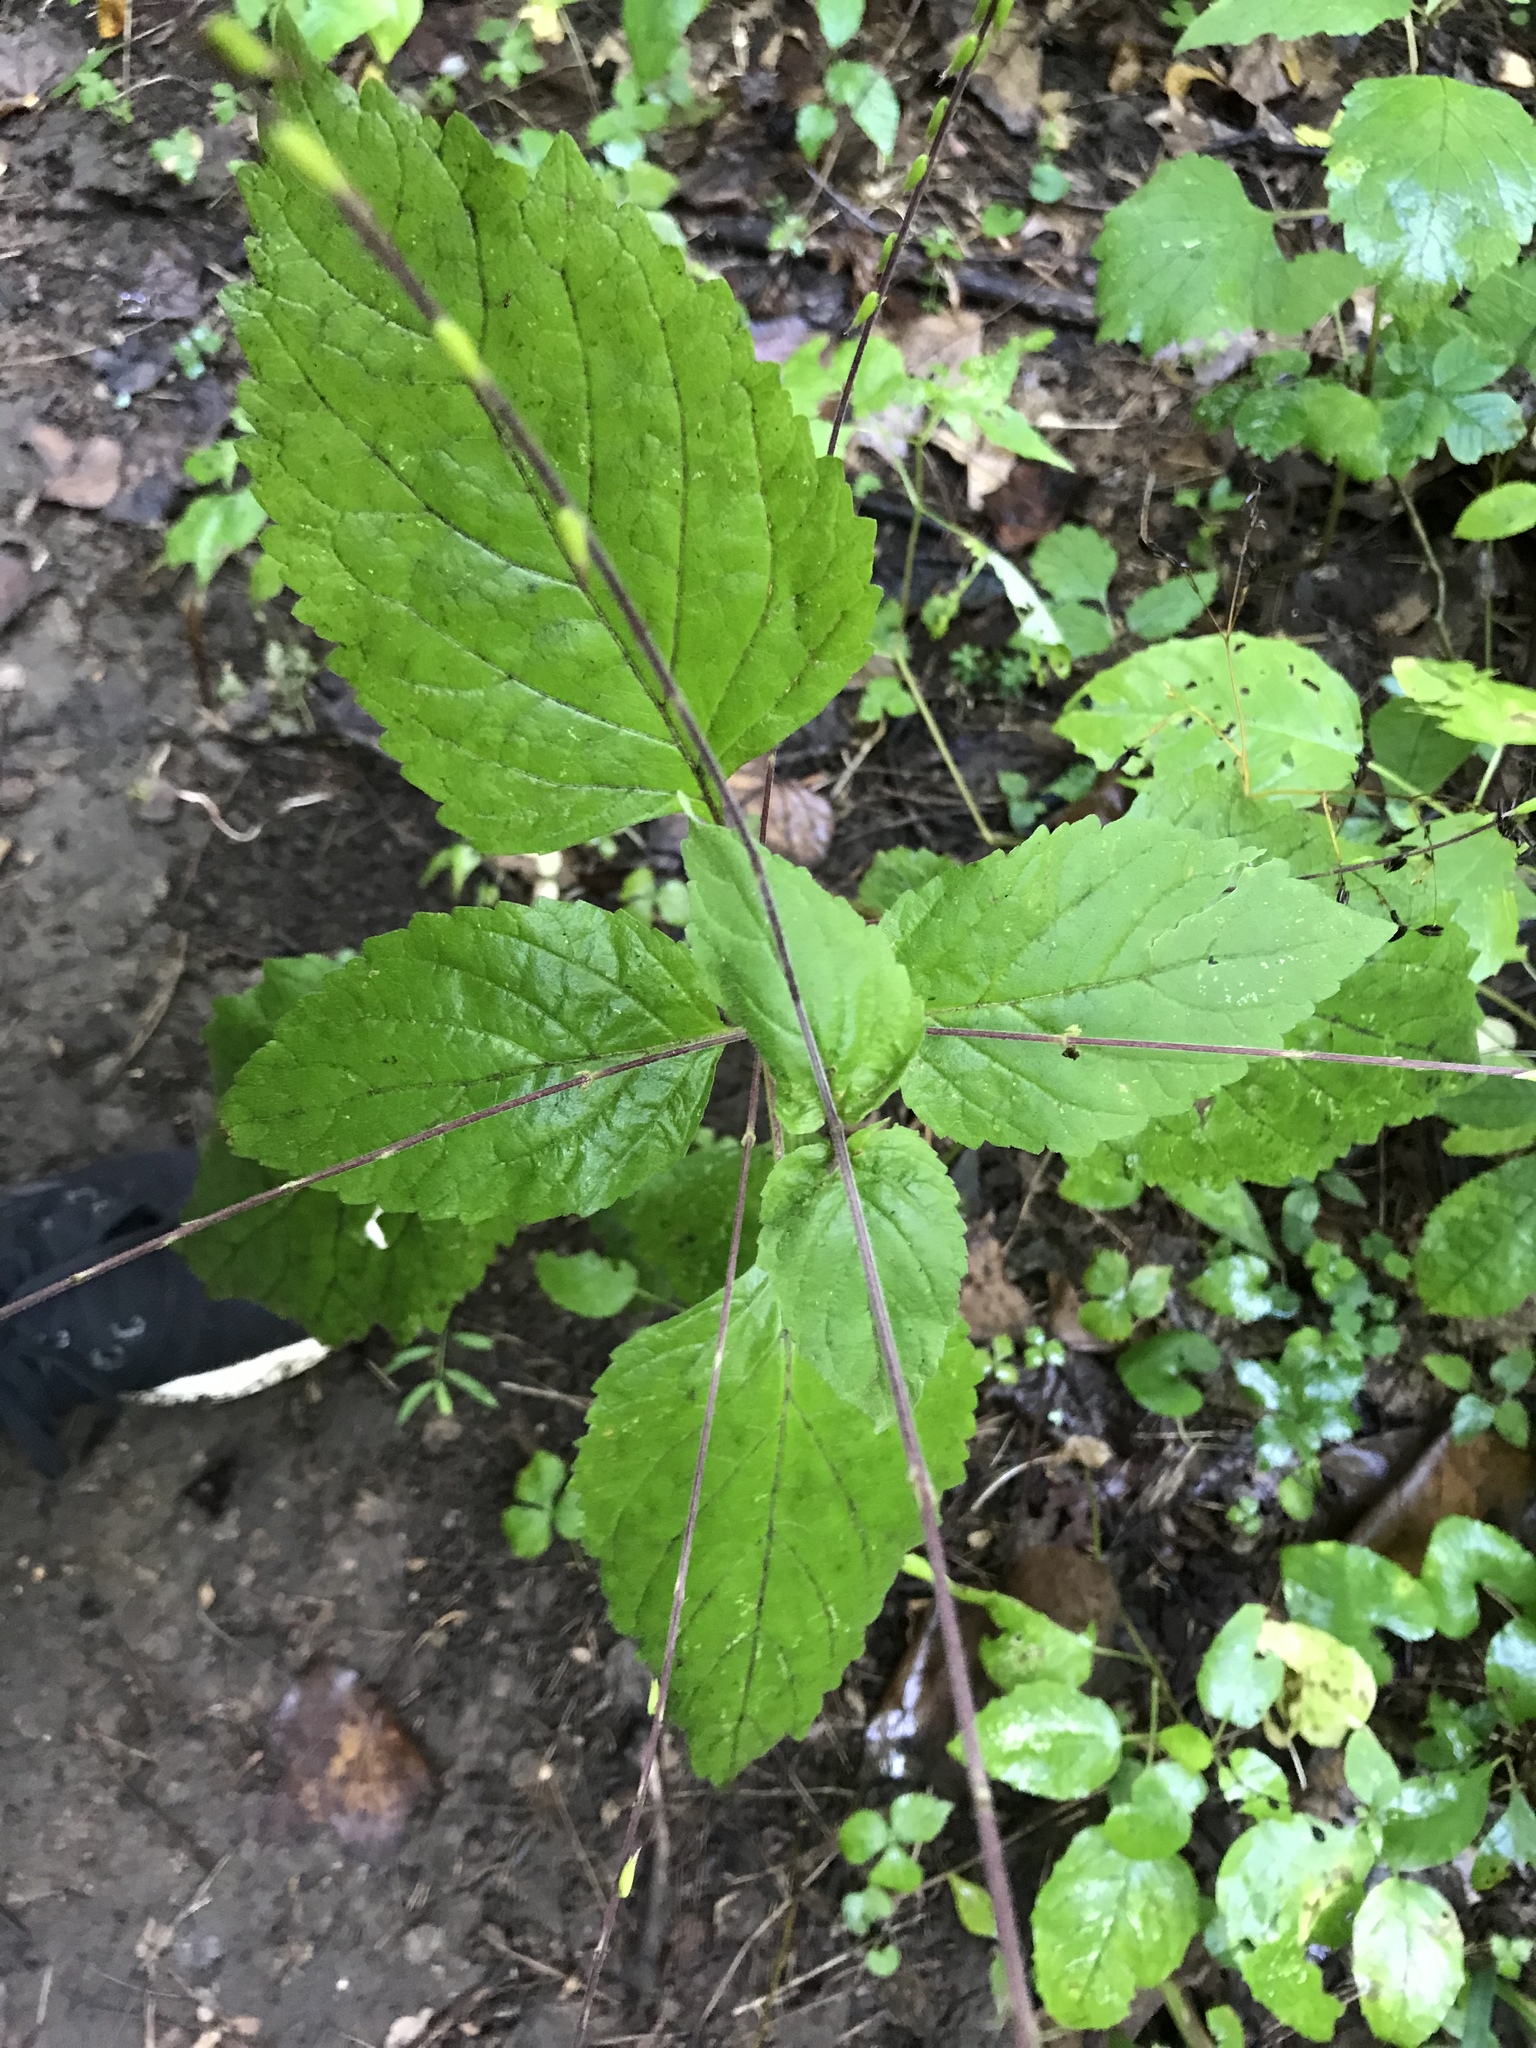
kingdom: Plantae
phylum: Tracheophyta
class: Magnoliopsida
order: Lamiales
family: Phrymaceae
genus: Phryma
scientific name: Phryma leptostachya
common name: American lopseed
